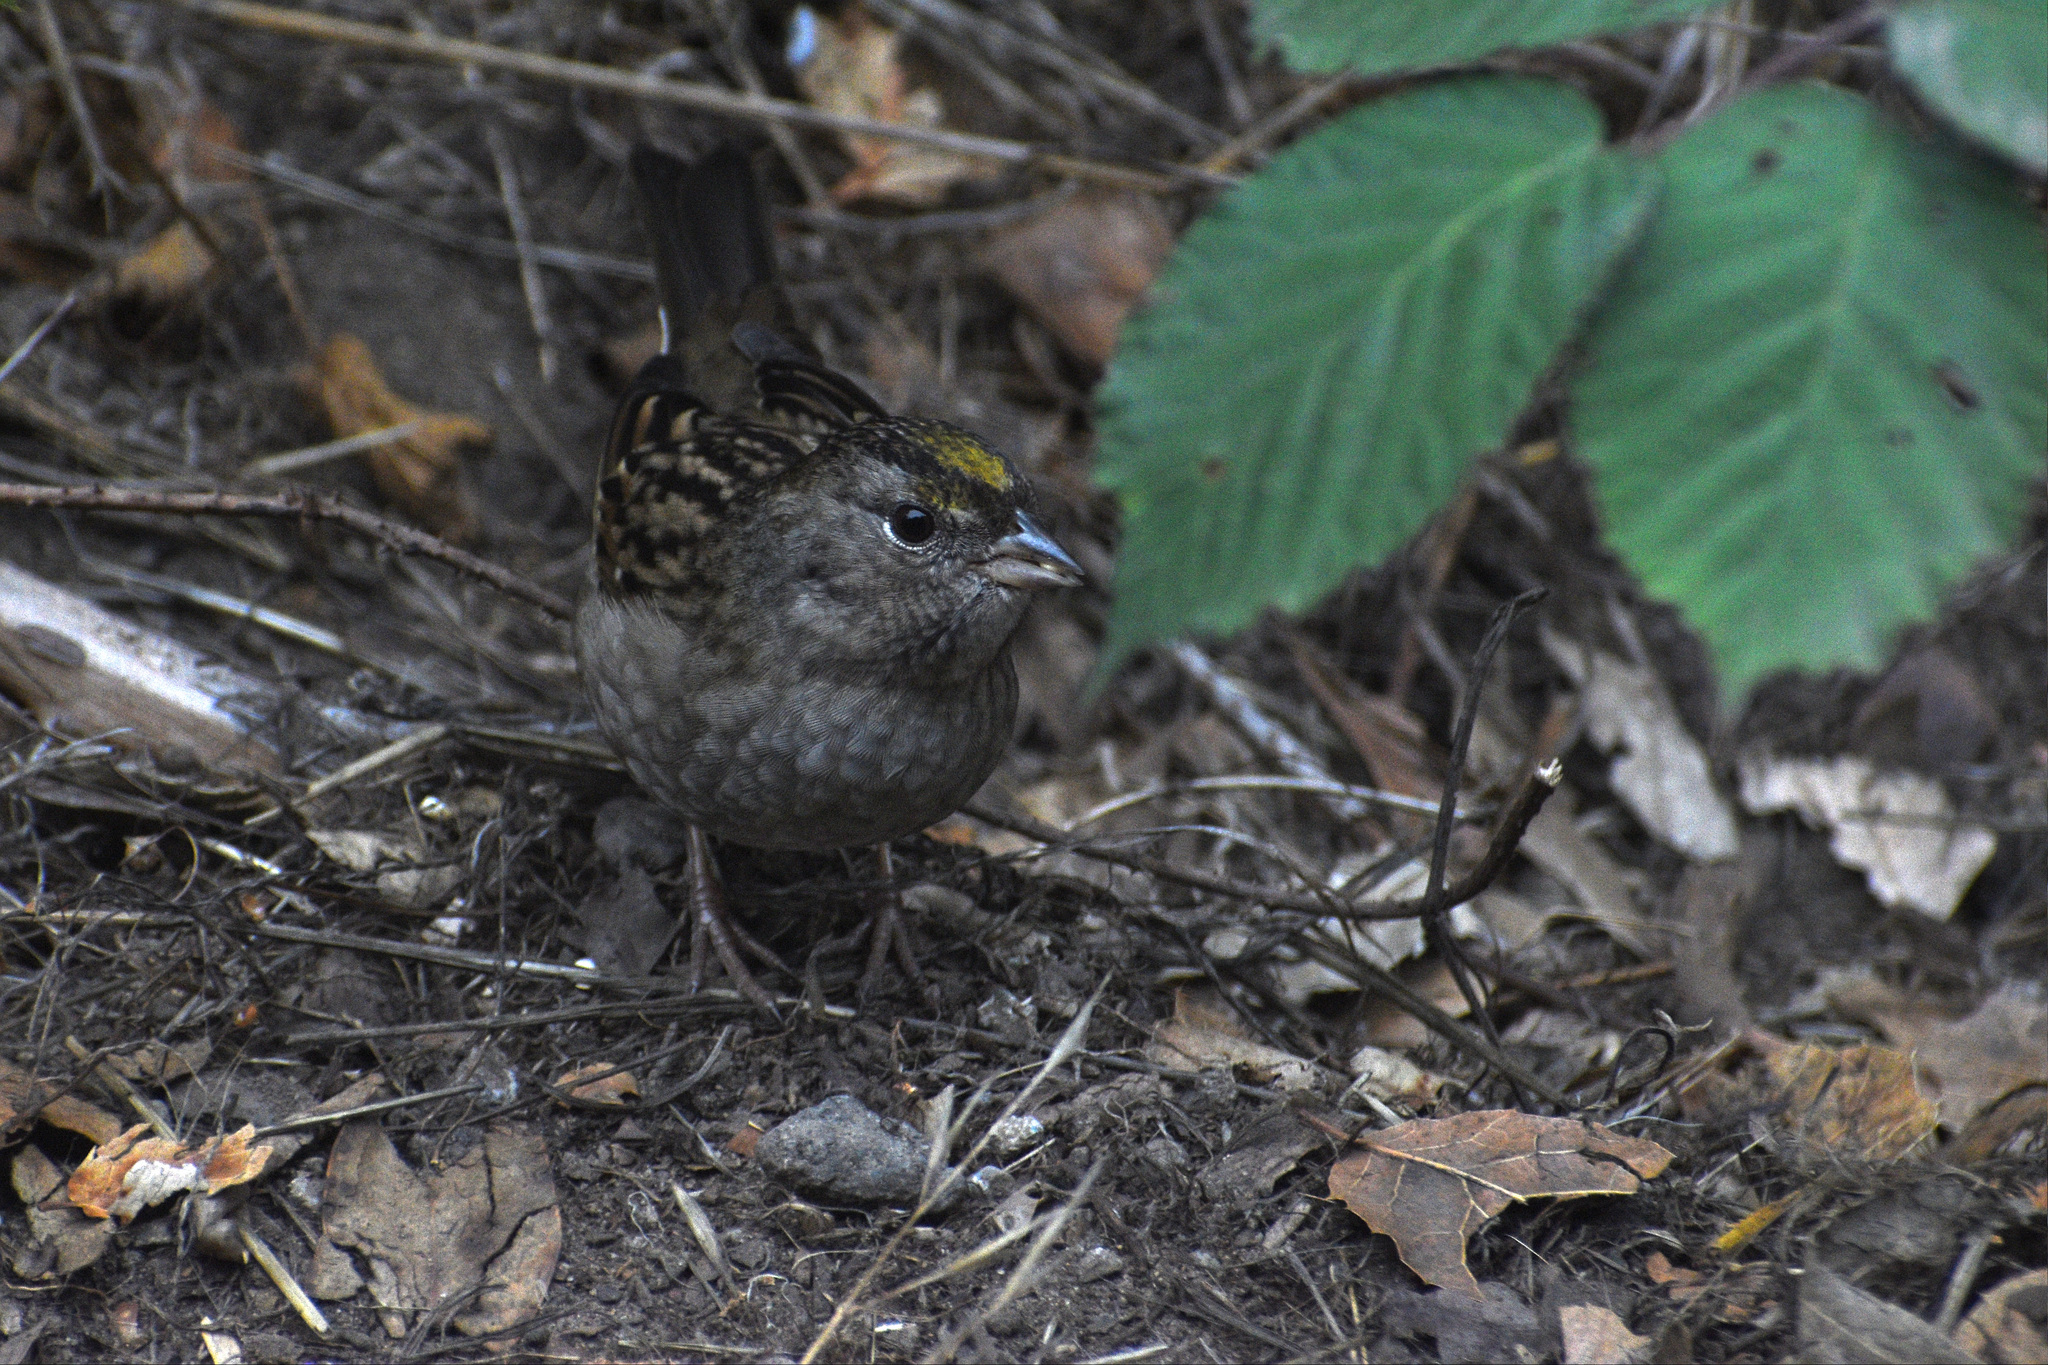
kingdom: Animalia
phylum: Chordata
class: Aves
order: Passeriformes
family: Passerellidae
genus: Zonotrichia
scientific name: Zonotrichia atricapilla
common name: Golden-crowned sparrow
